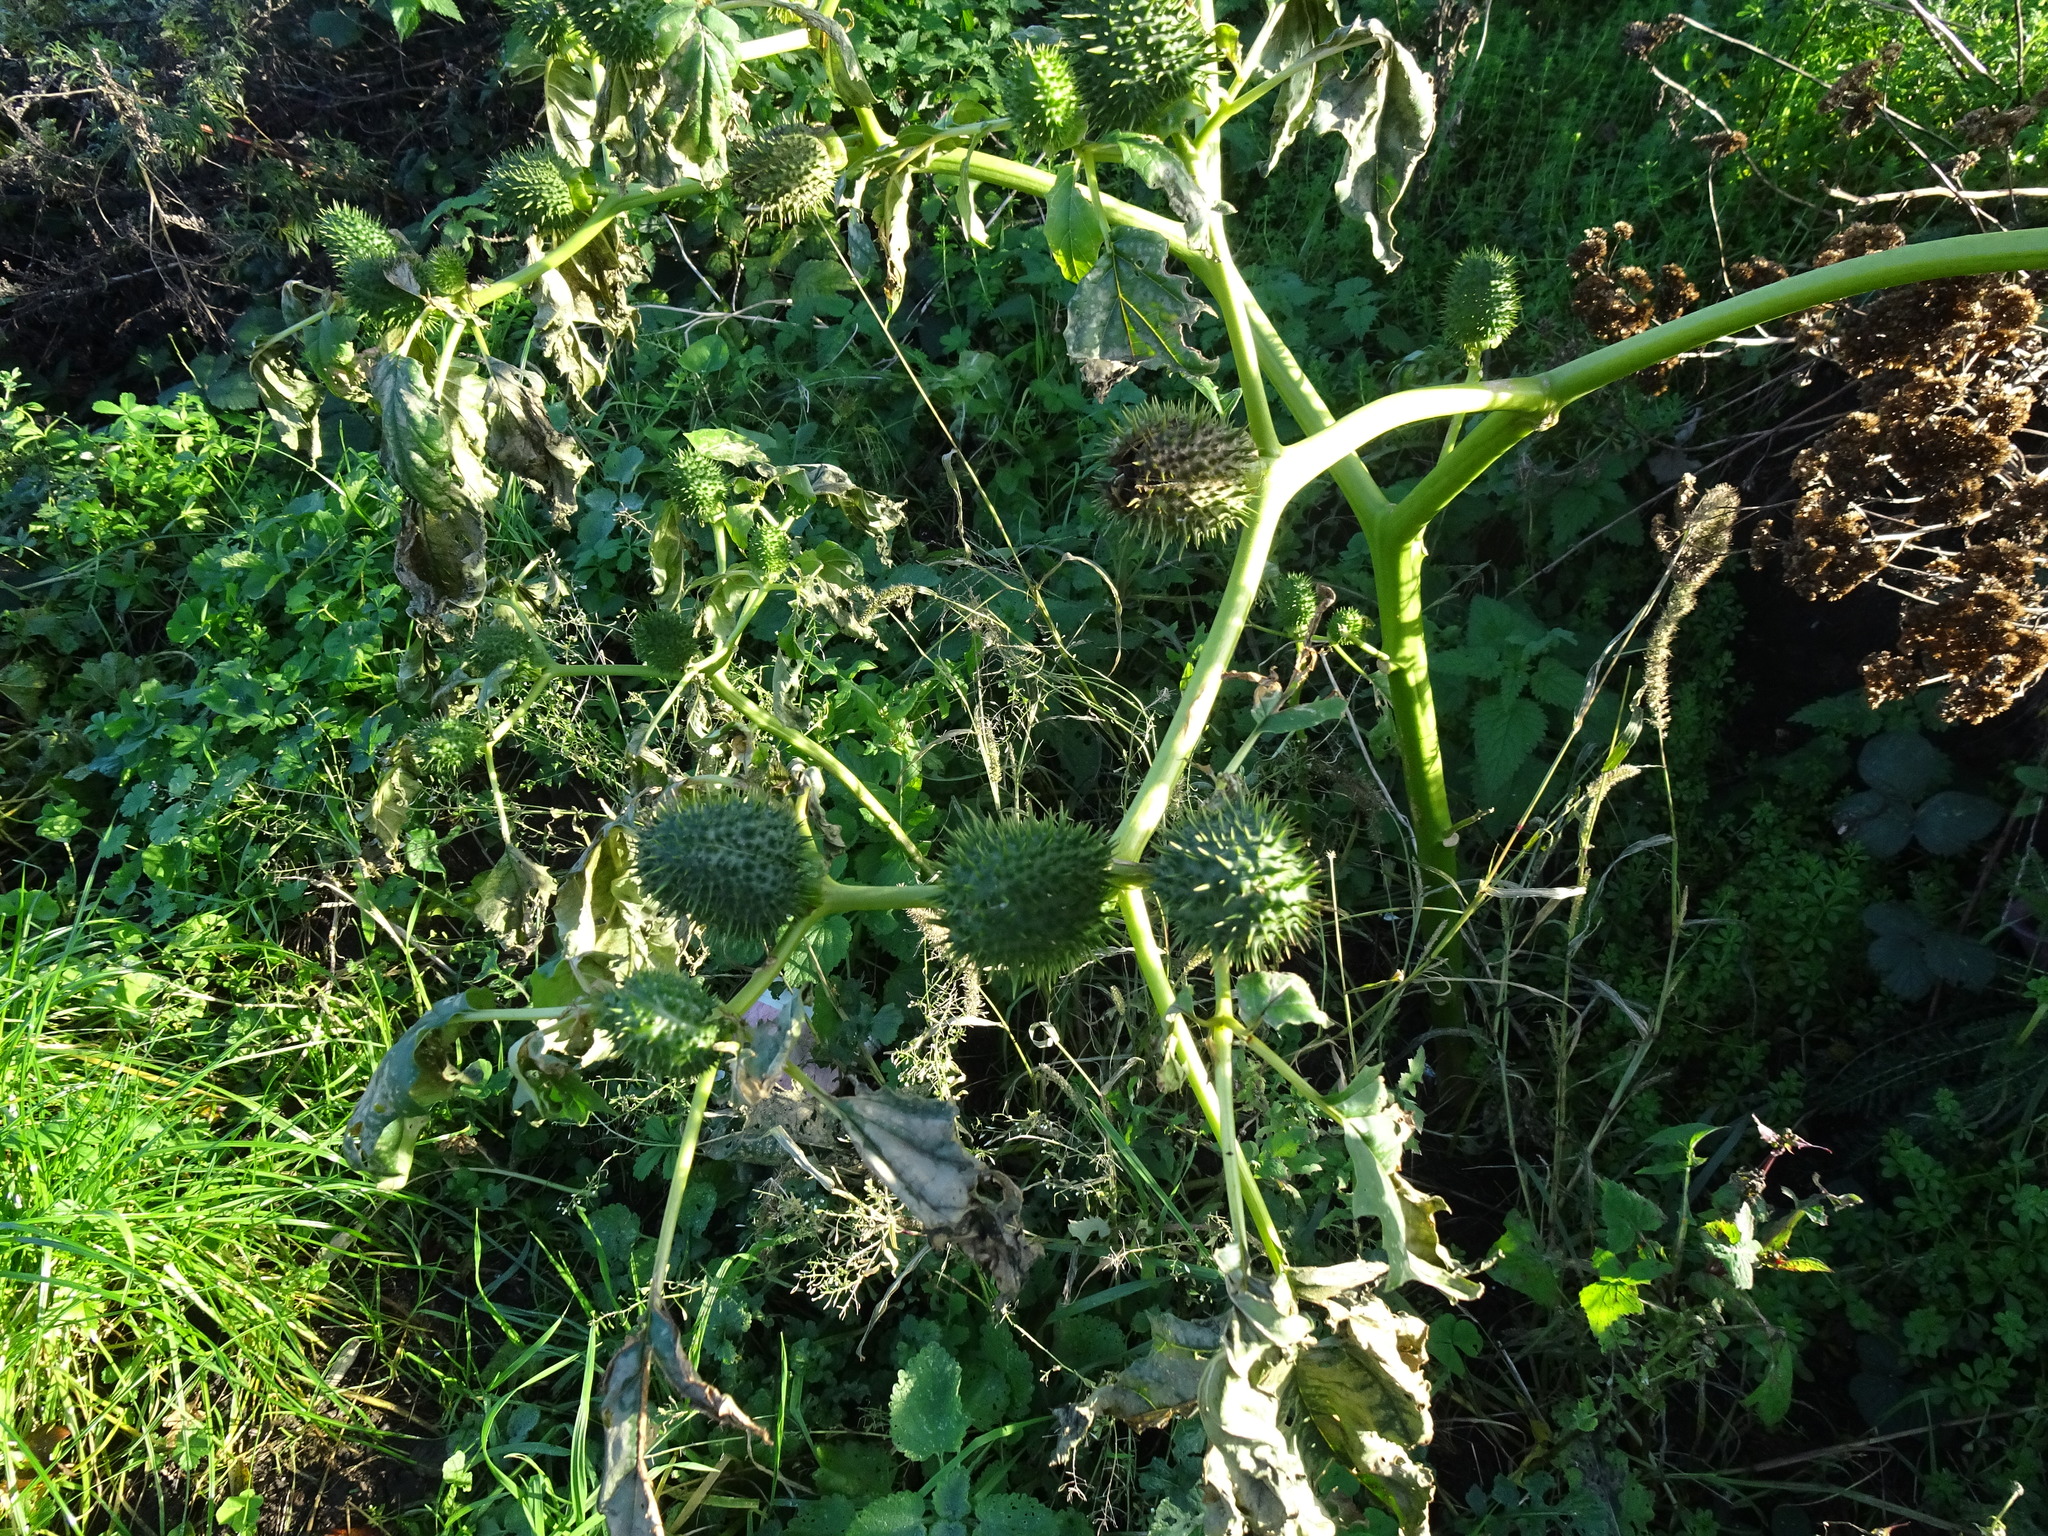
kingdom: Plantae
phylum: Tracheophyta
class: Magnoliopsida
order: Solanales
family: Solanaceae
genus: Datura
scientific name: Datura stramonium
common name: Thorn-apple
